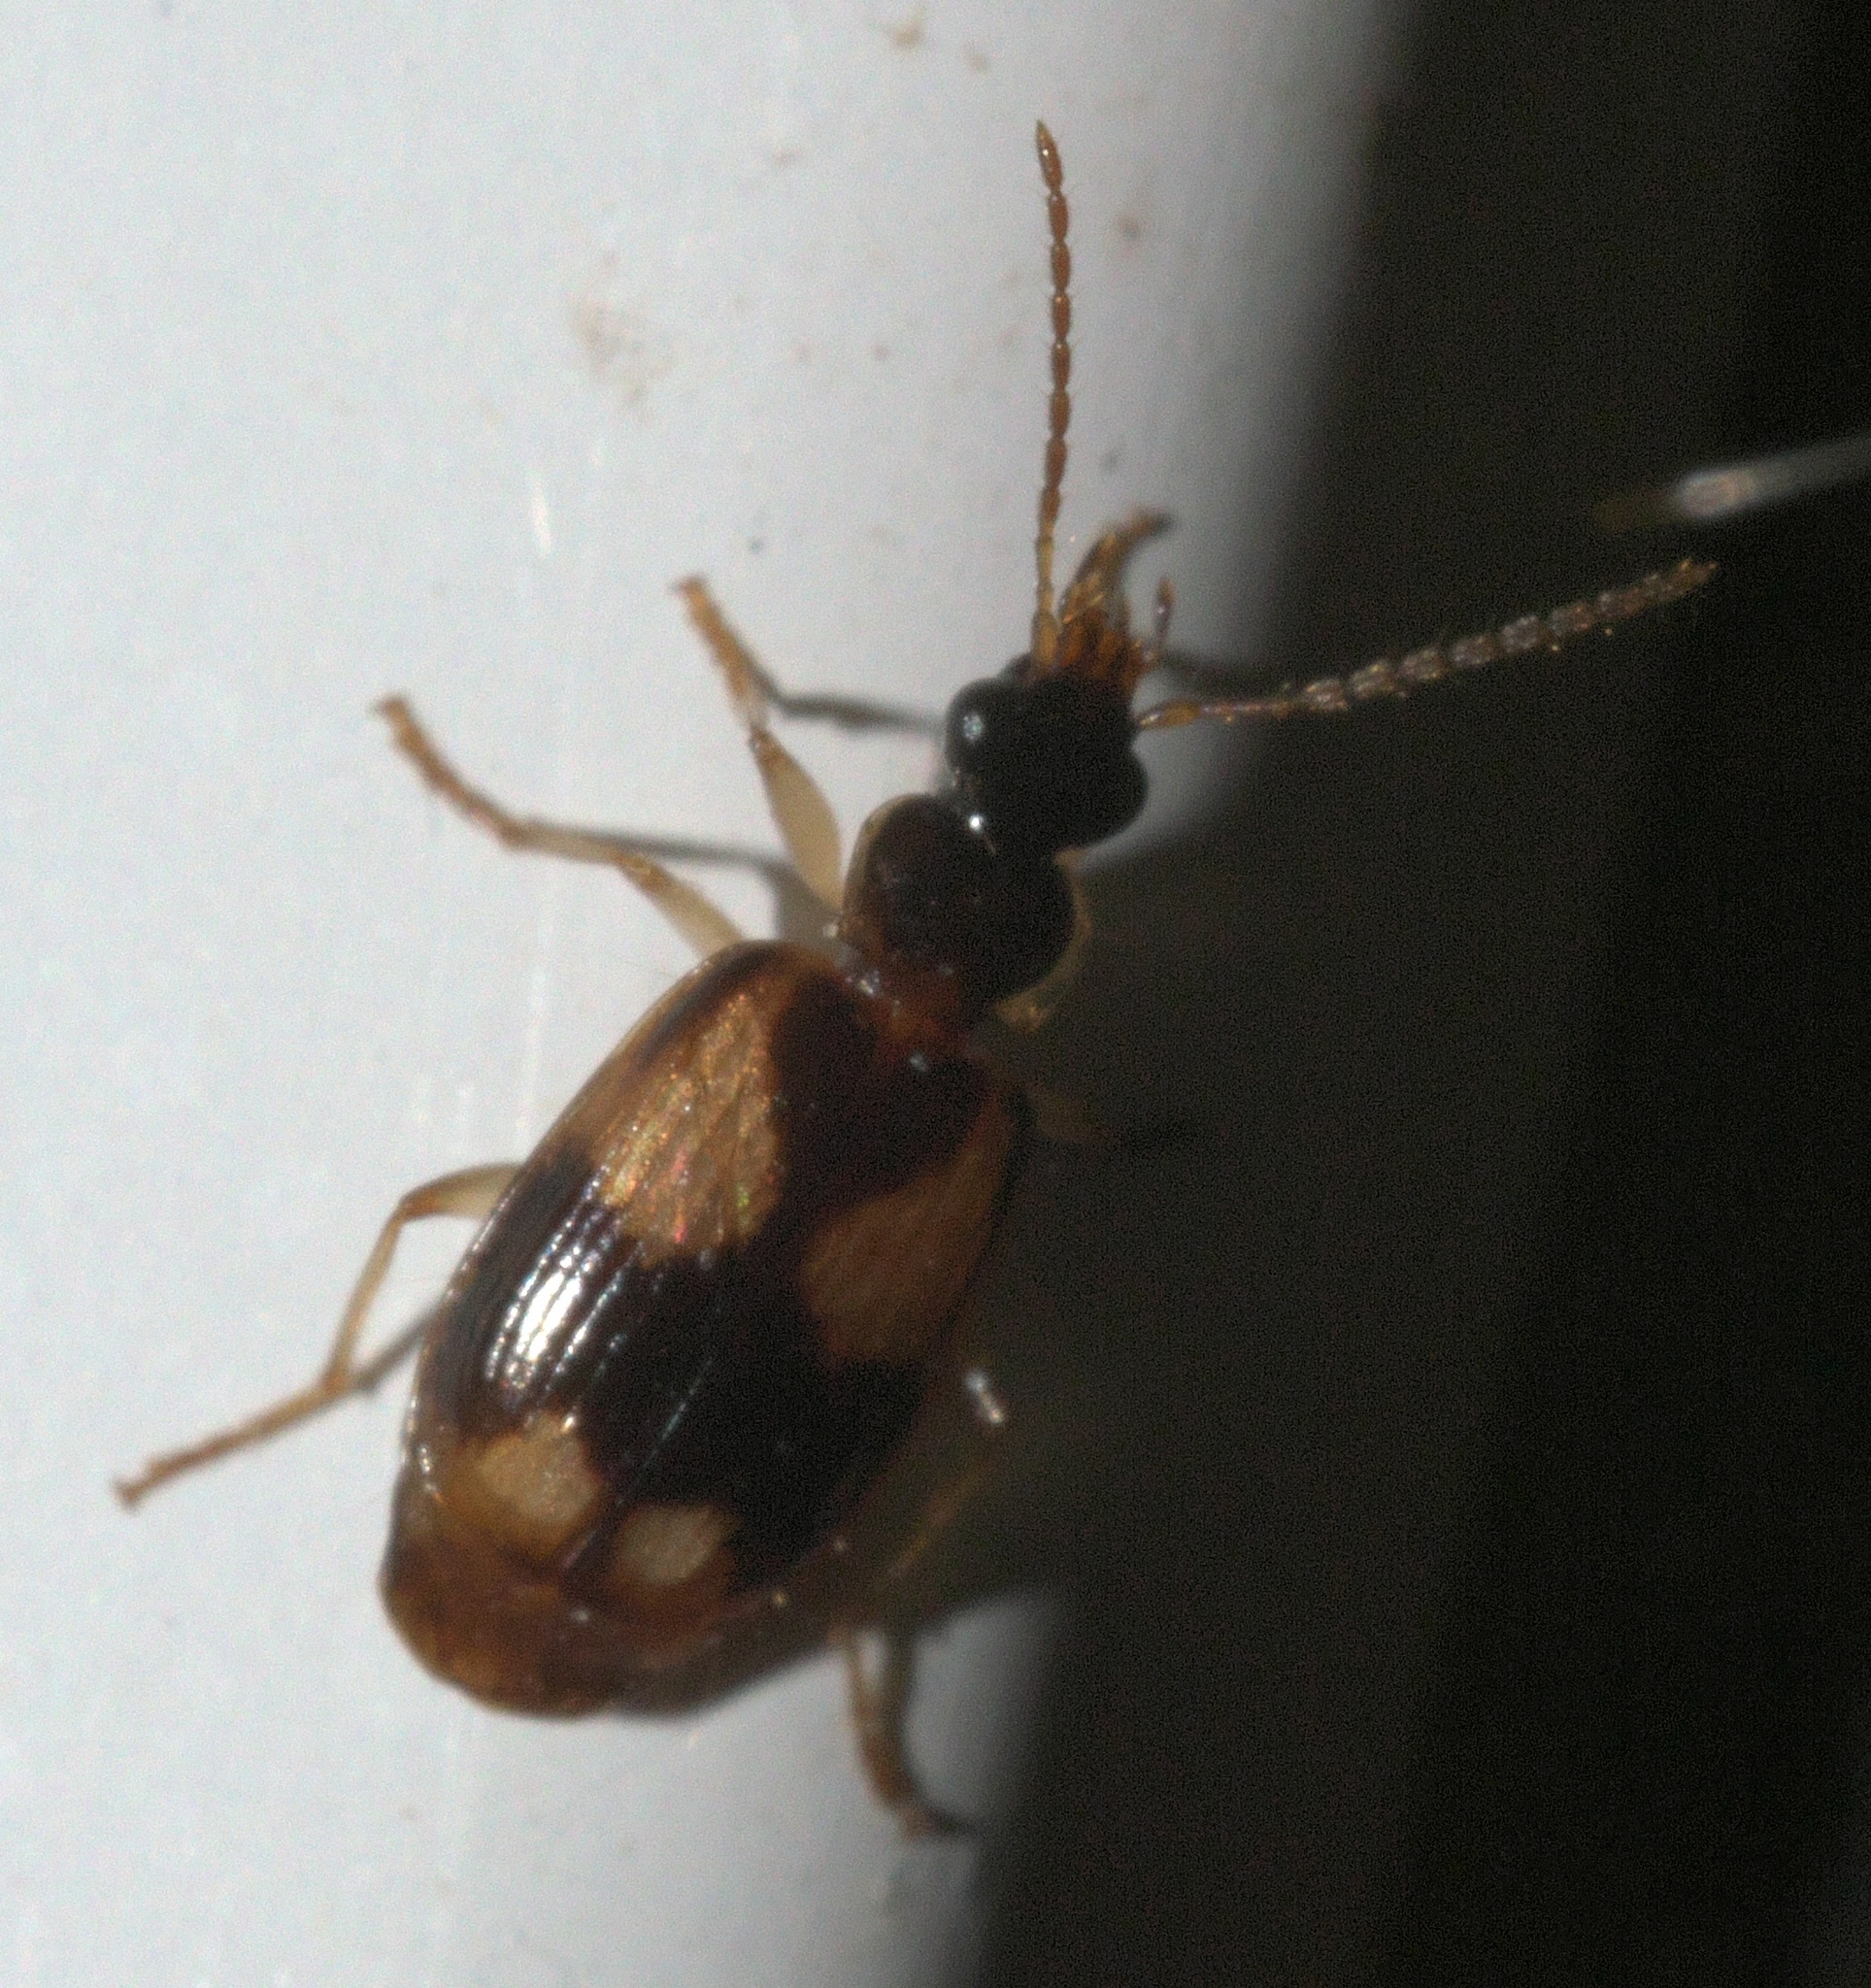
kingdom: Animalia
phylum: Arthropoda
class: Insecta
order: Coleoptera
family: Carabidae
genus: Lebia
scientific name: Lebia ornata
